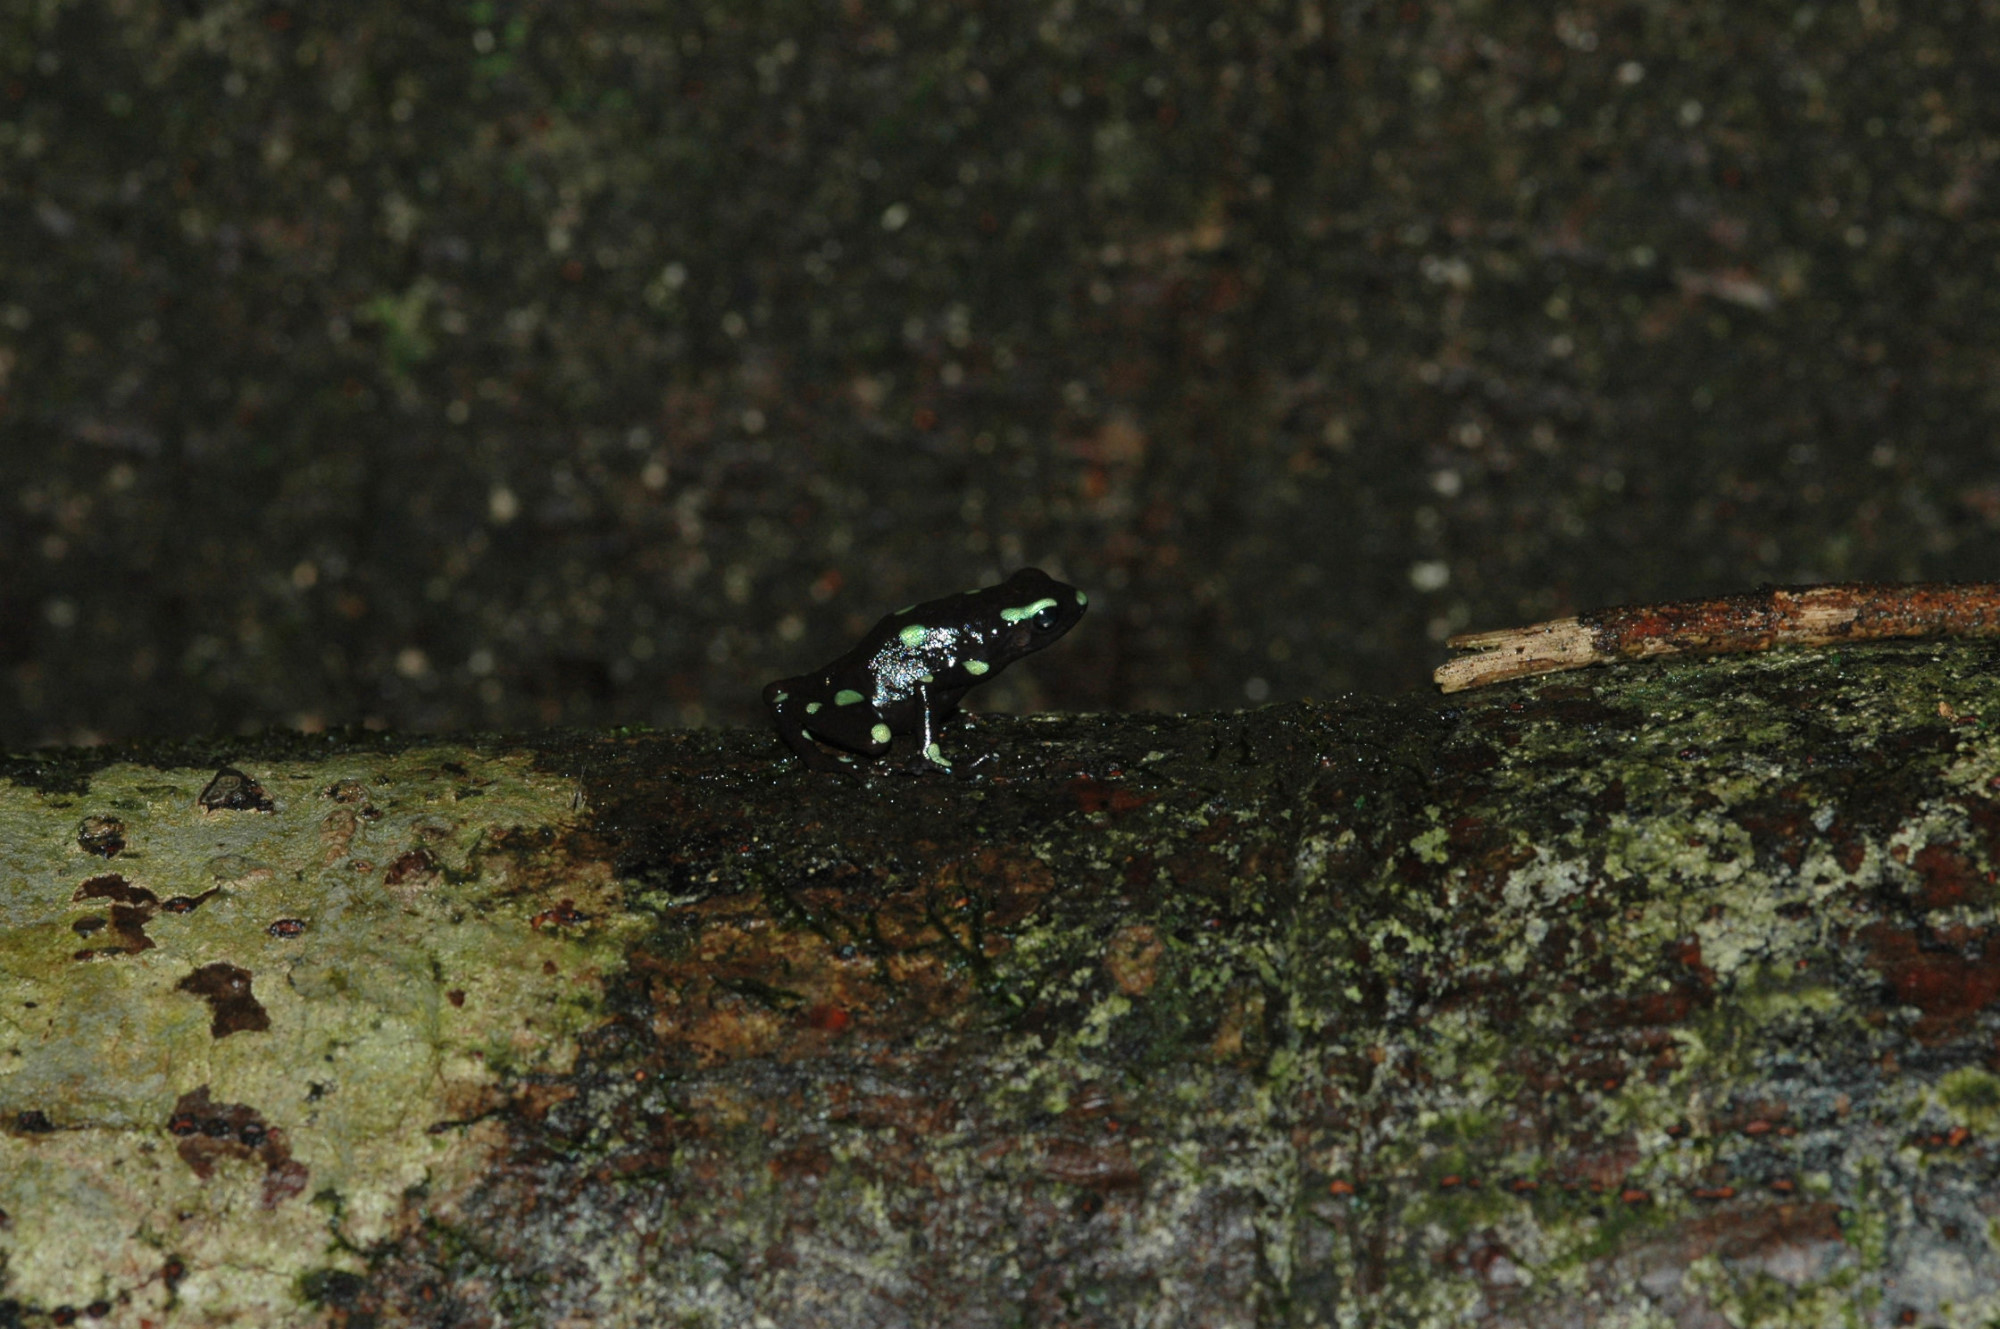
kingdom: Animalia
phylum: Chordata
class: Amphibia
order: Anura
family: Dendrobatidae
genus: Dendrobates
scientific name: Dendrobates auratus
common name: Green and black poison dart frog
